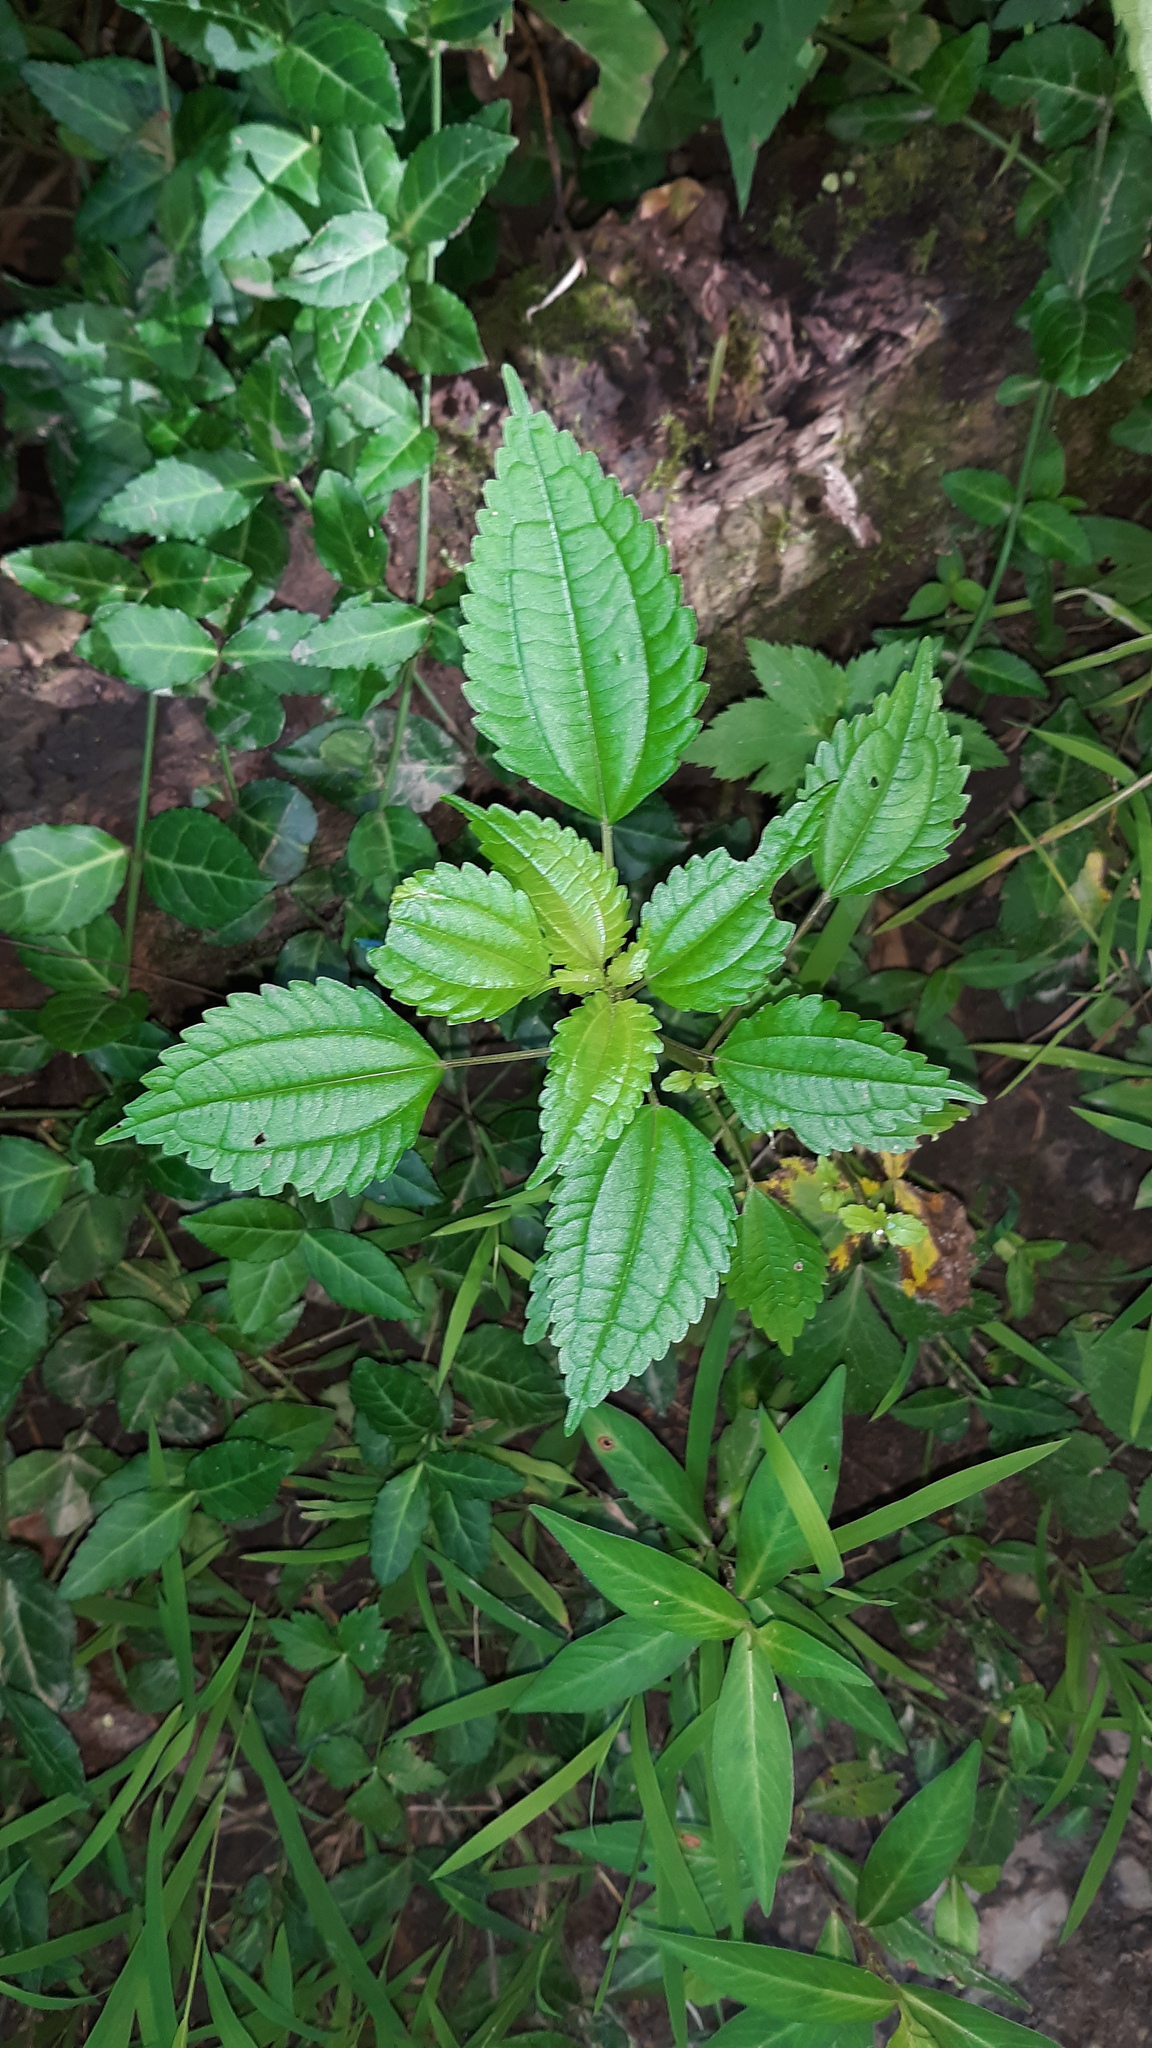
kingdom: Plantae
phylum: Tracheophyta
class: Magnoliopsida
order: Rosales
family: Urticaceae
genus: Pilea
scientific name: Pilea pumila
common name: Clearweed
